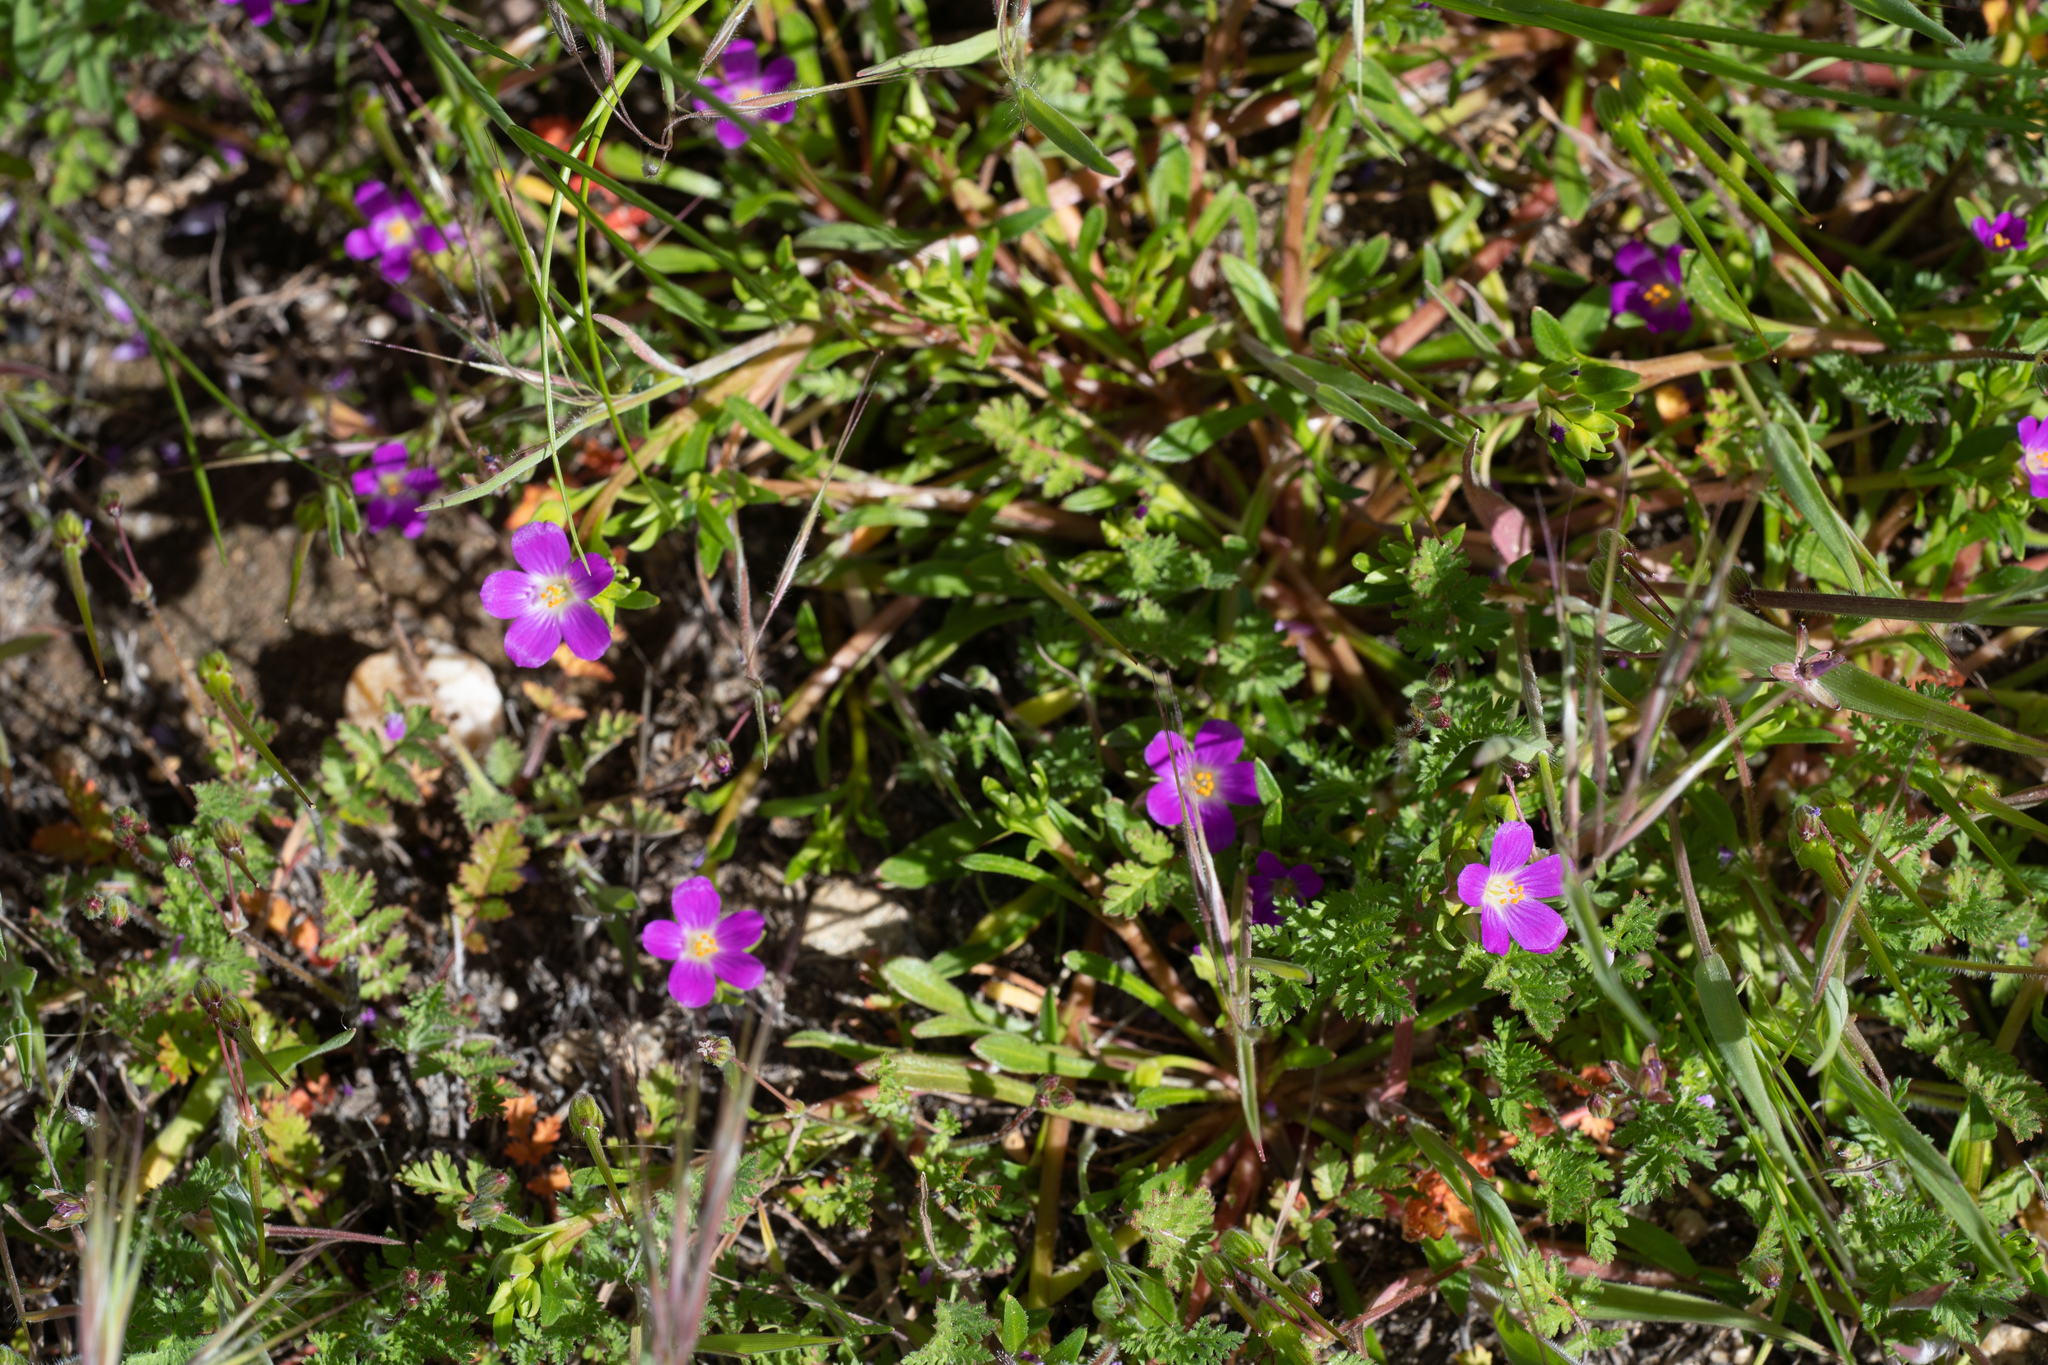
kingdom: Plantae
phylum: Tracheophyta
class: Magnoliopsida
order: Caryophyllales
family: Montiaceae
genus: Calandrinia
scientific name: Calandrinia menziesii
